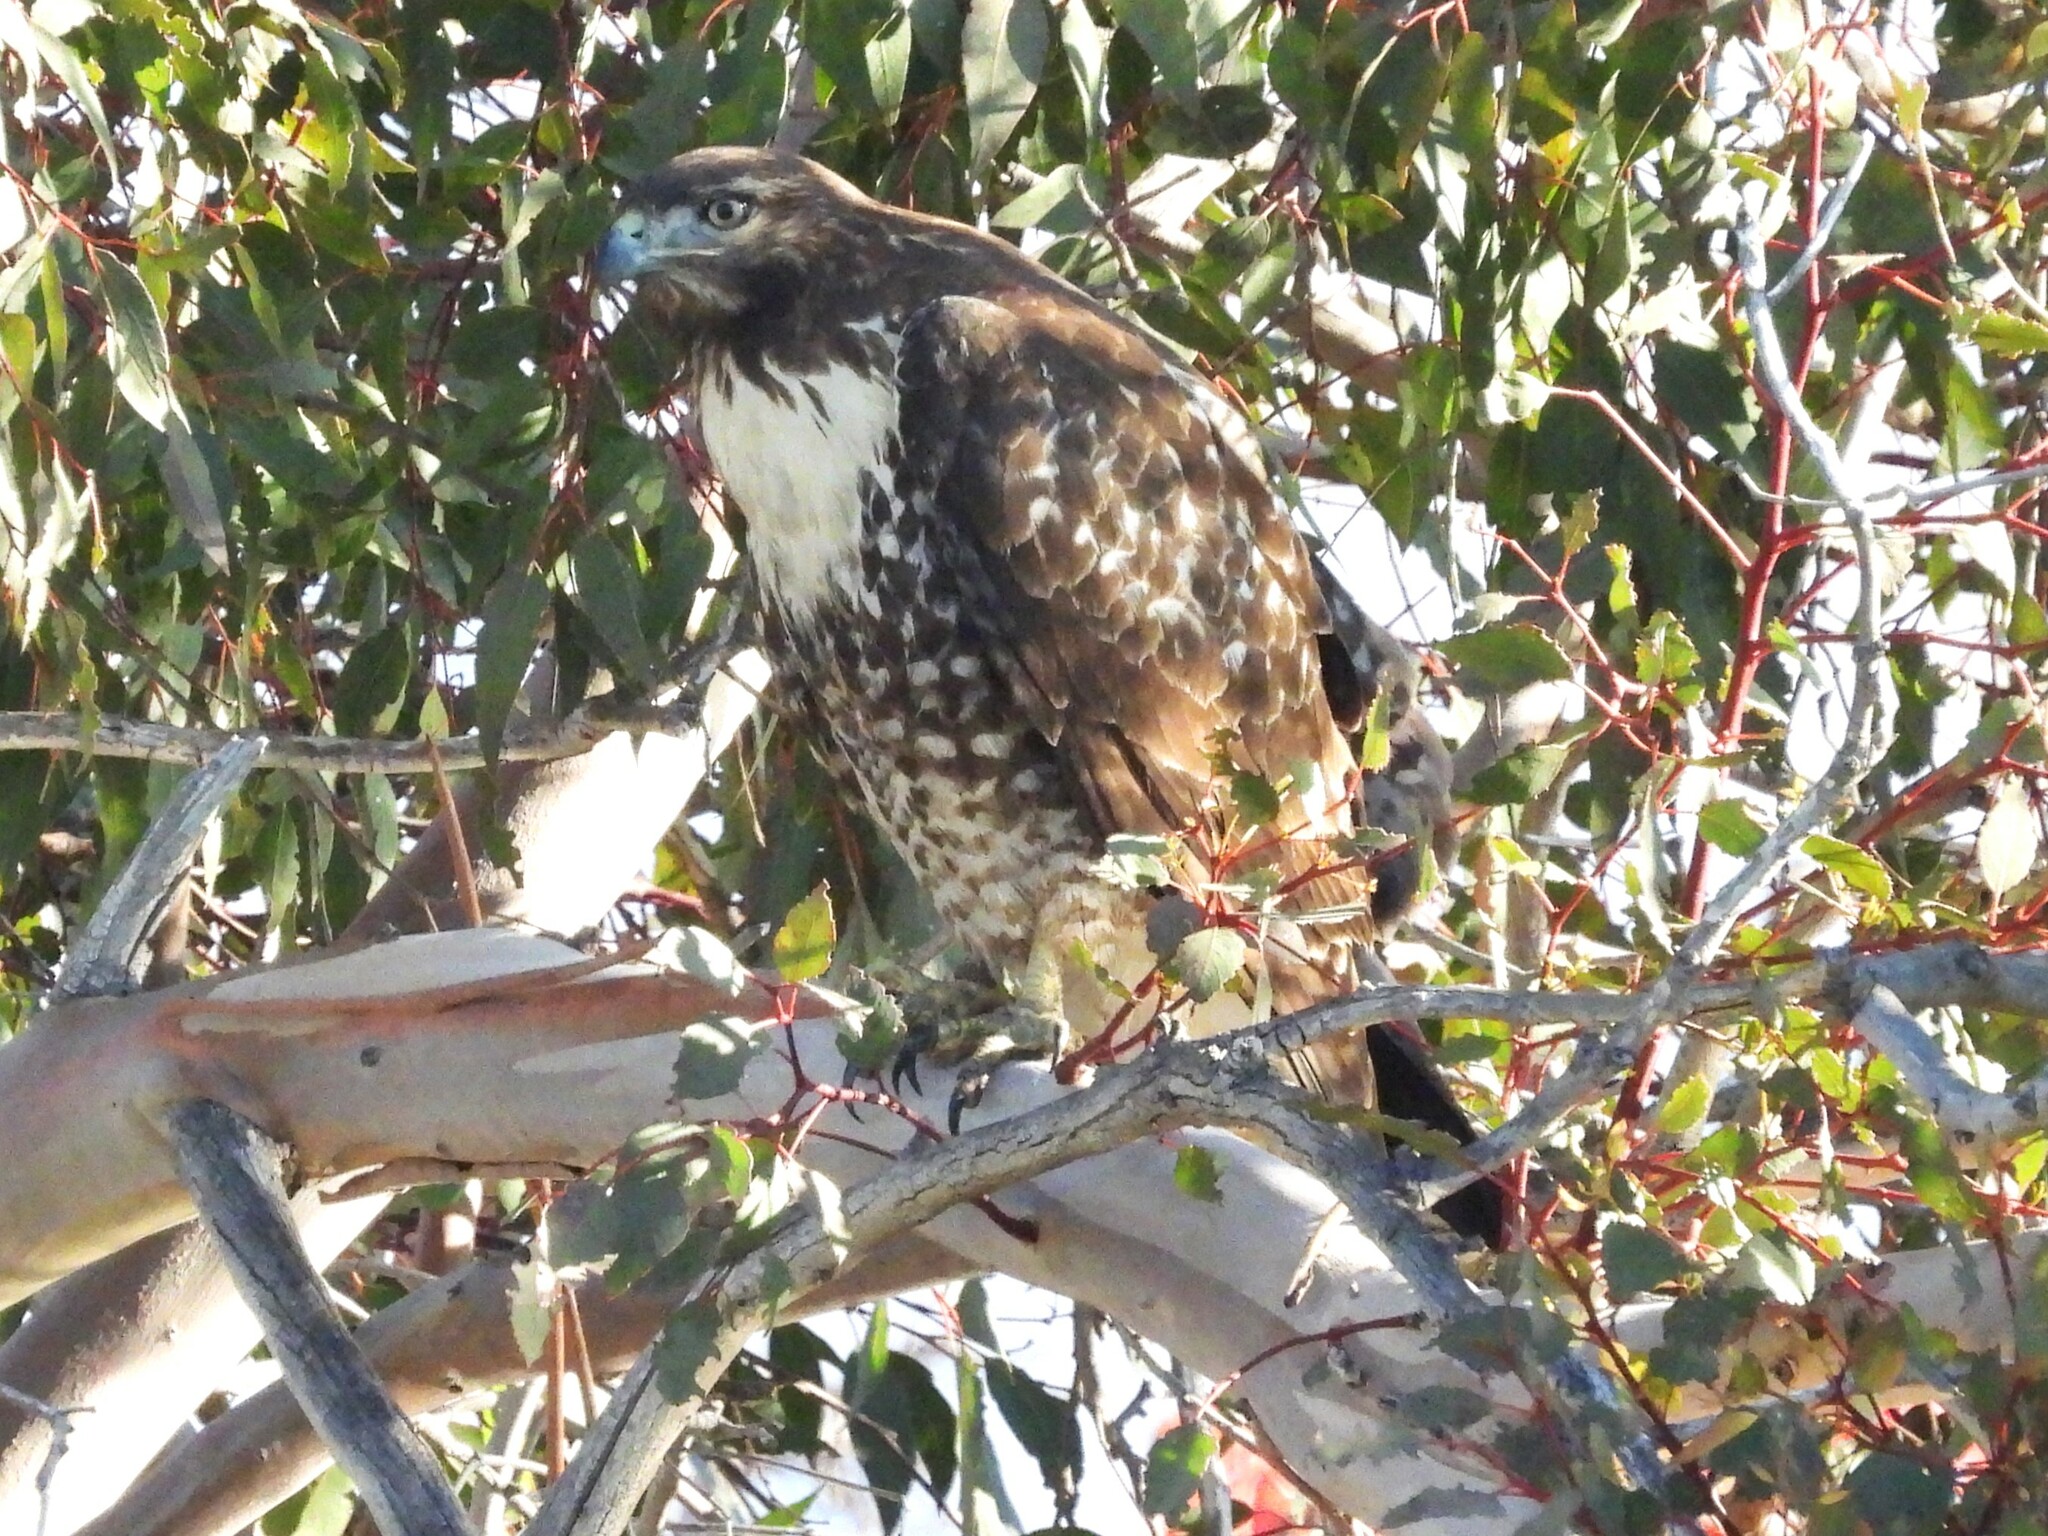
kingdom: Animalia
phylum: Chordata
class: Aves
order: Accipitriformes
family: Accipitridae
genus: Buteo
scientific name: Buteo jamaicensis
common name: Red-tailed hawk
